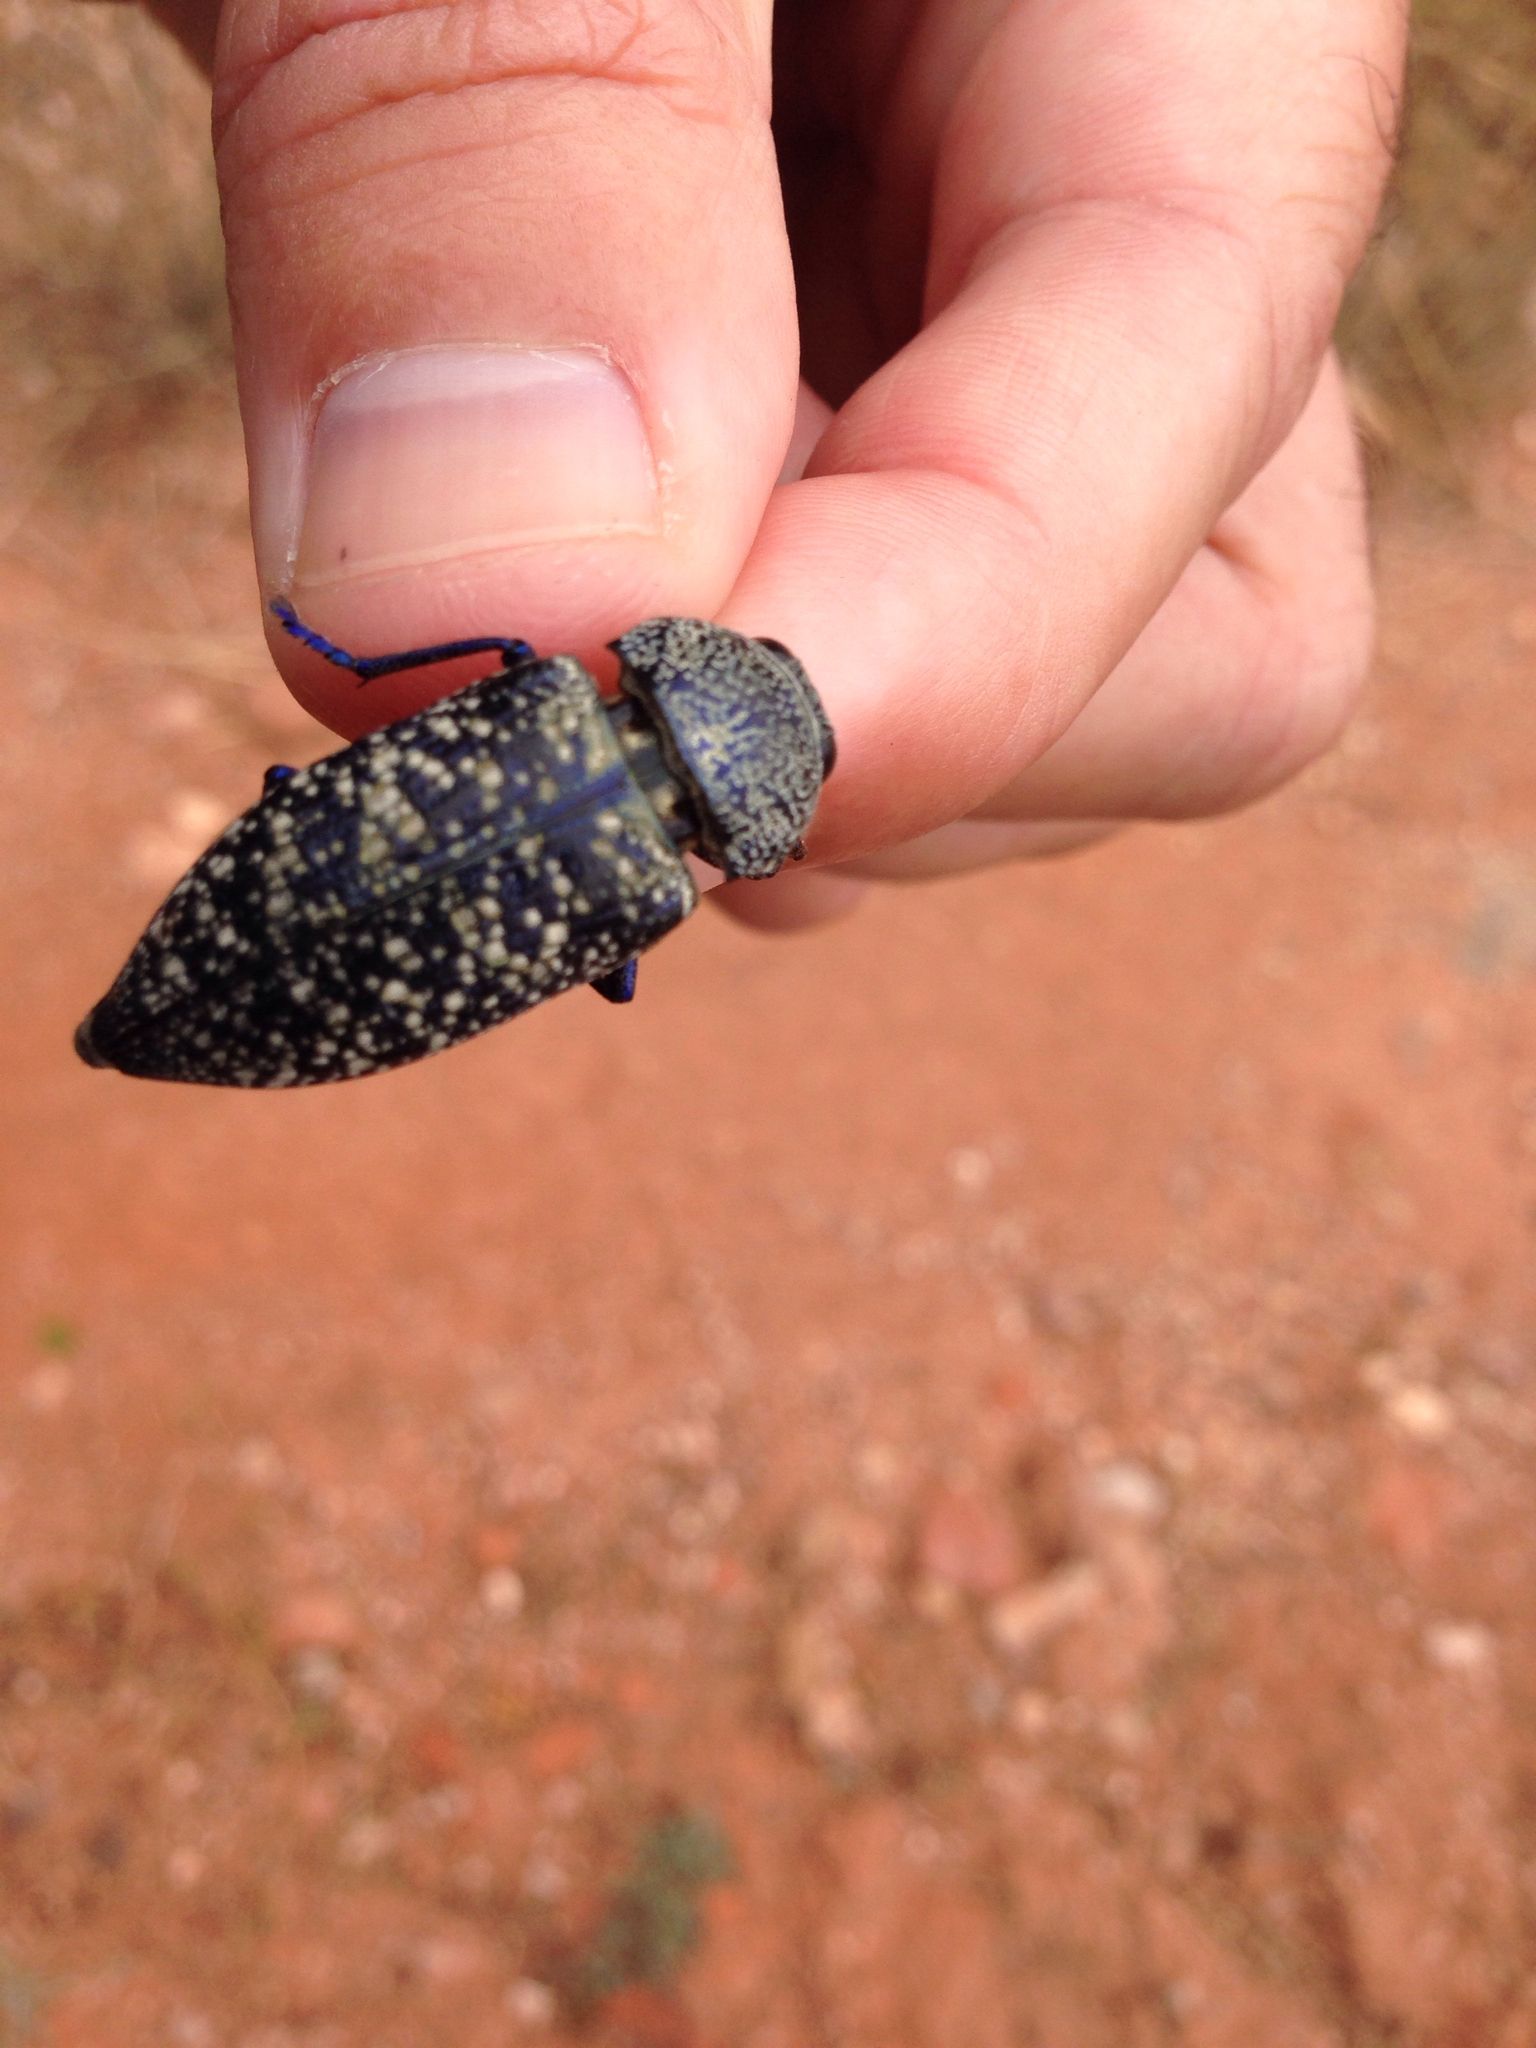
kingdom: Animalia
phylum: Arthropoda
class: Insecta
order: Coleoptera
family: Buprestidae
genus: Lampetis
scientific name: Lampetis drummondi
